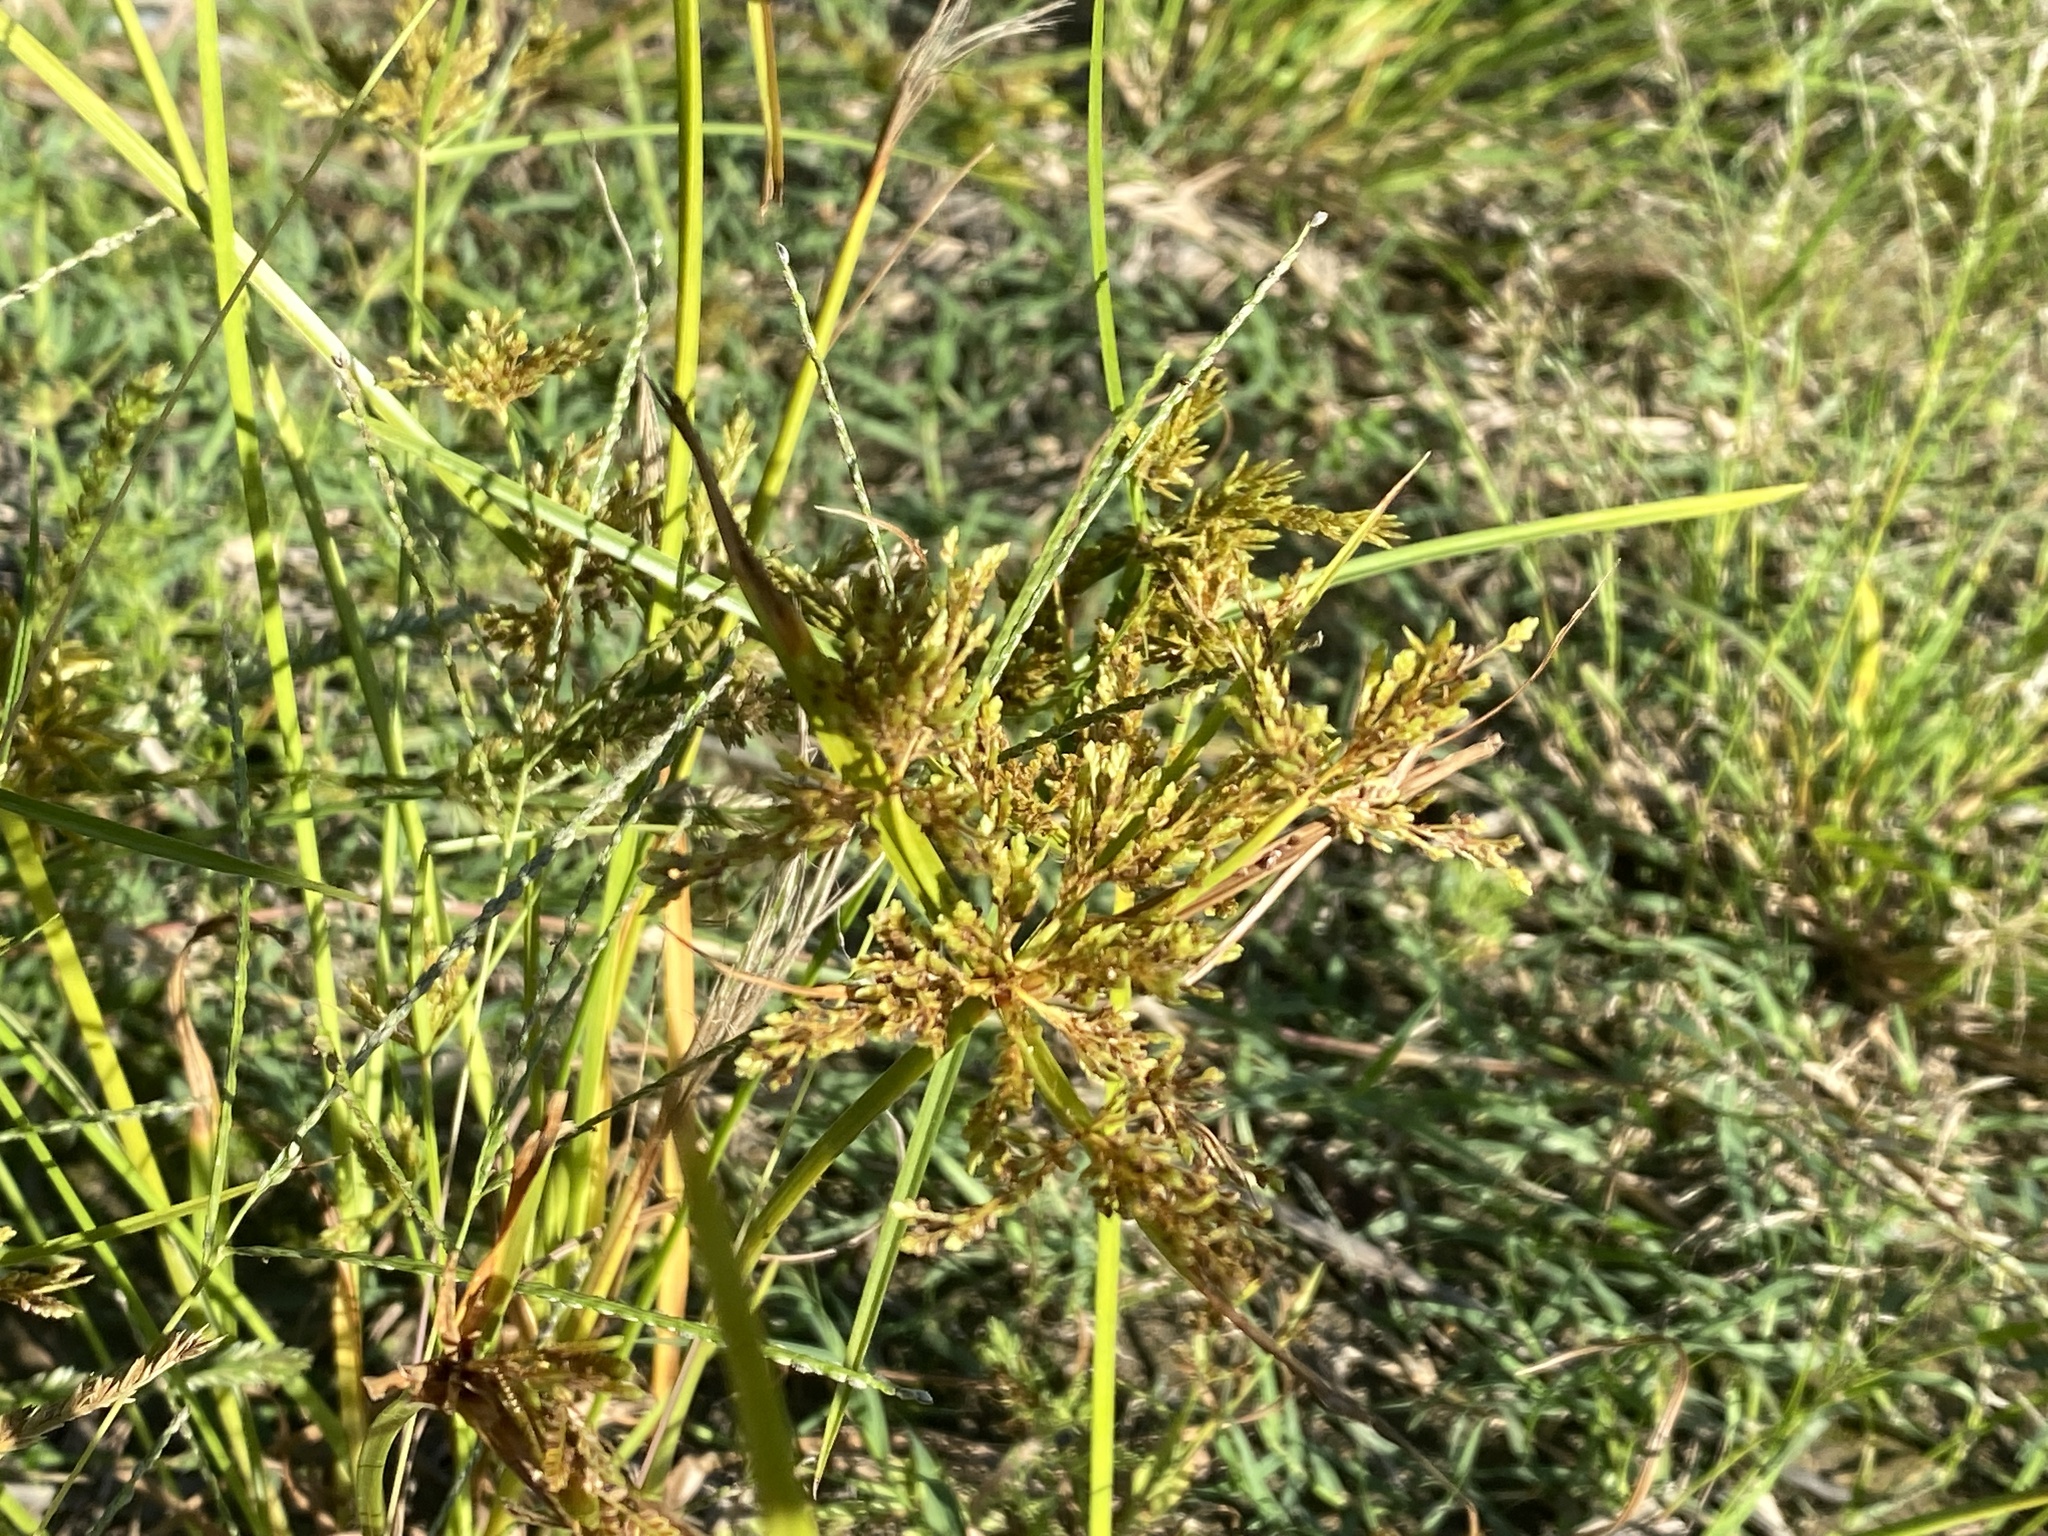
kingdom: Plantae
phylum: Tracheophyta
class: Liliopsida
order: Poales
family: Cyperaceae
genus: Cyperus
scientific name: Cyperus iria
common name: Ricefield flatsedge
